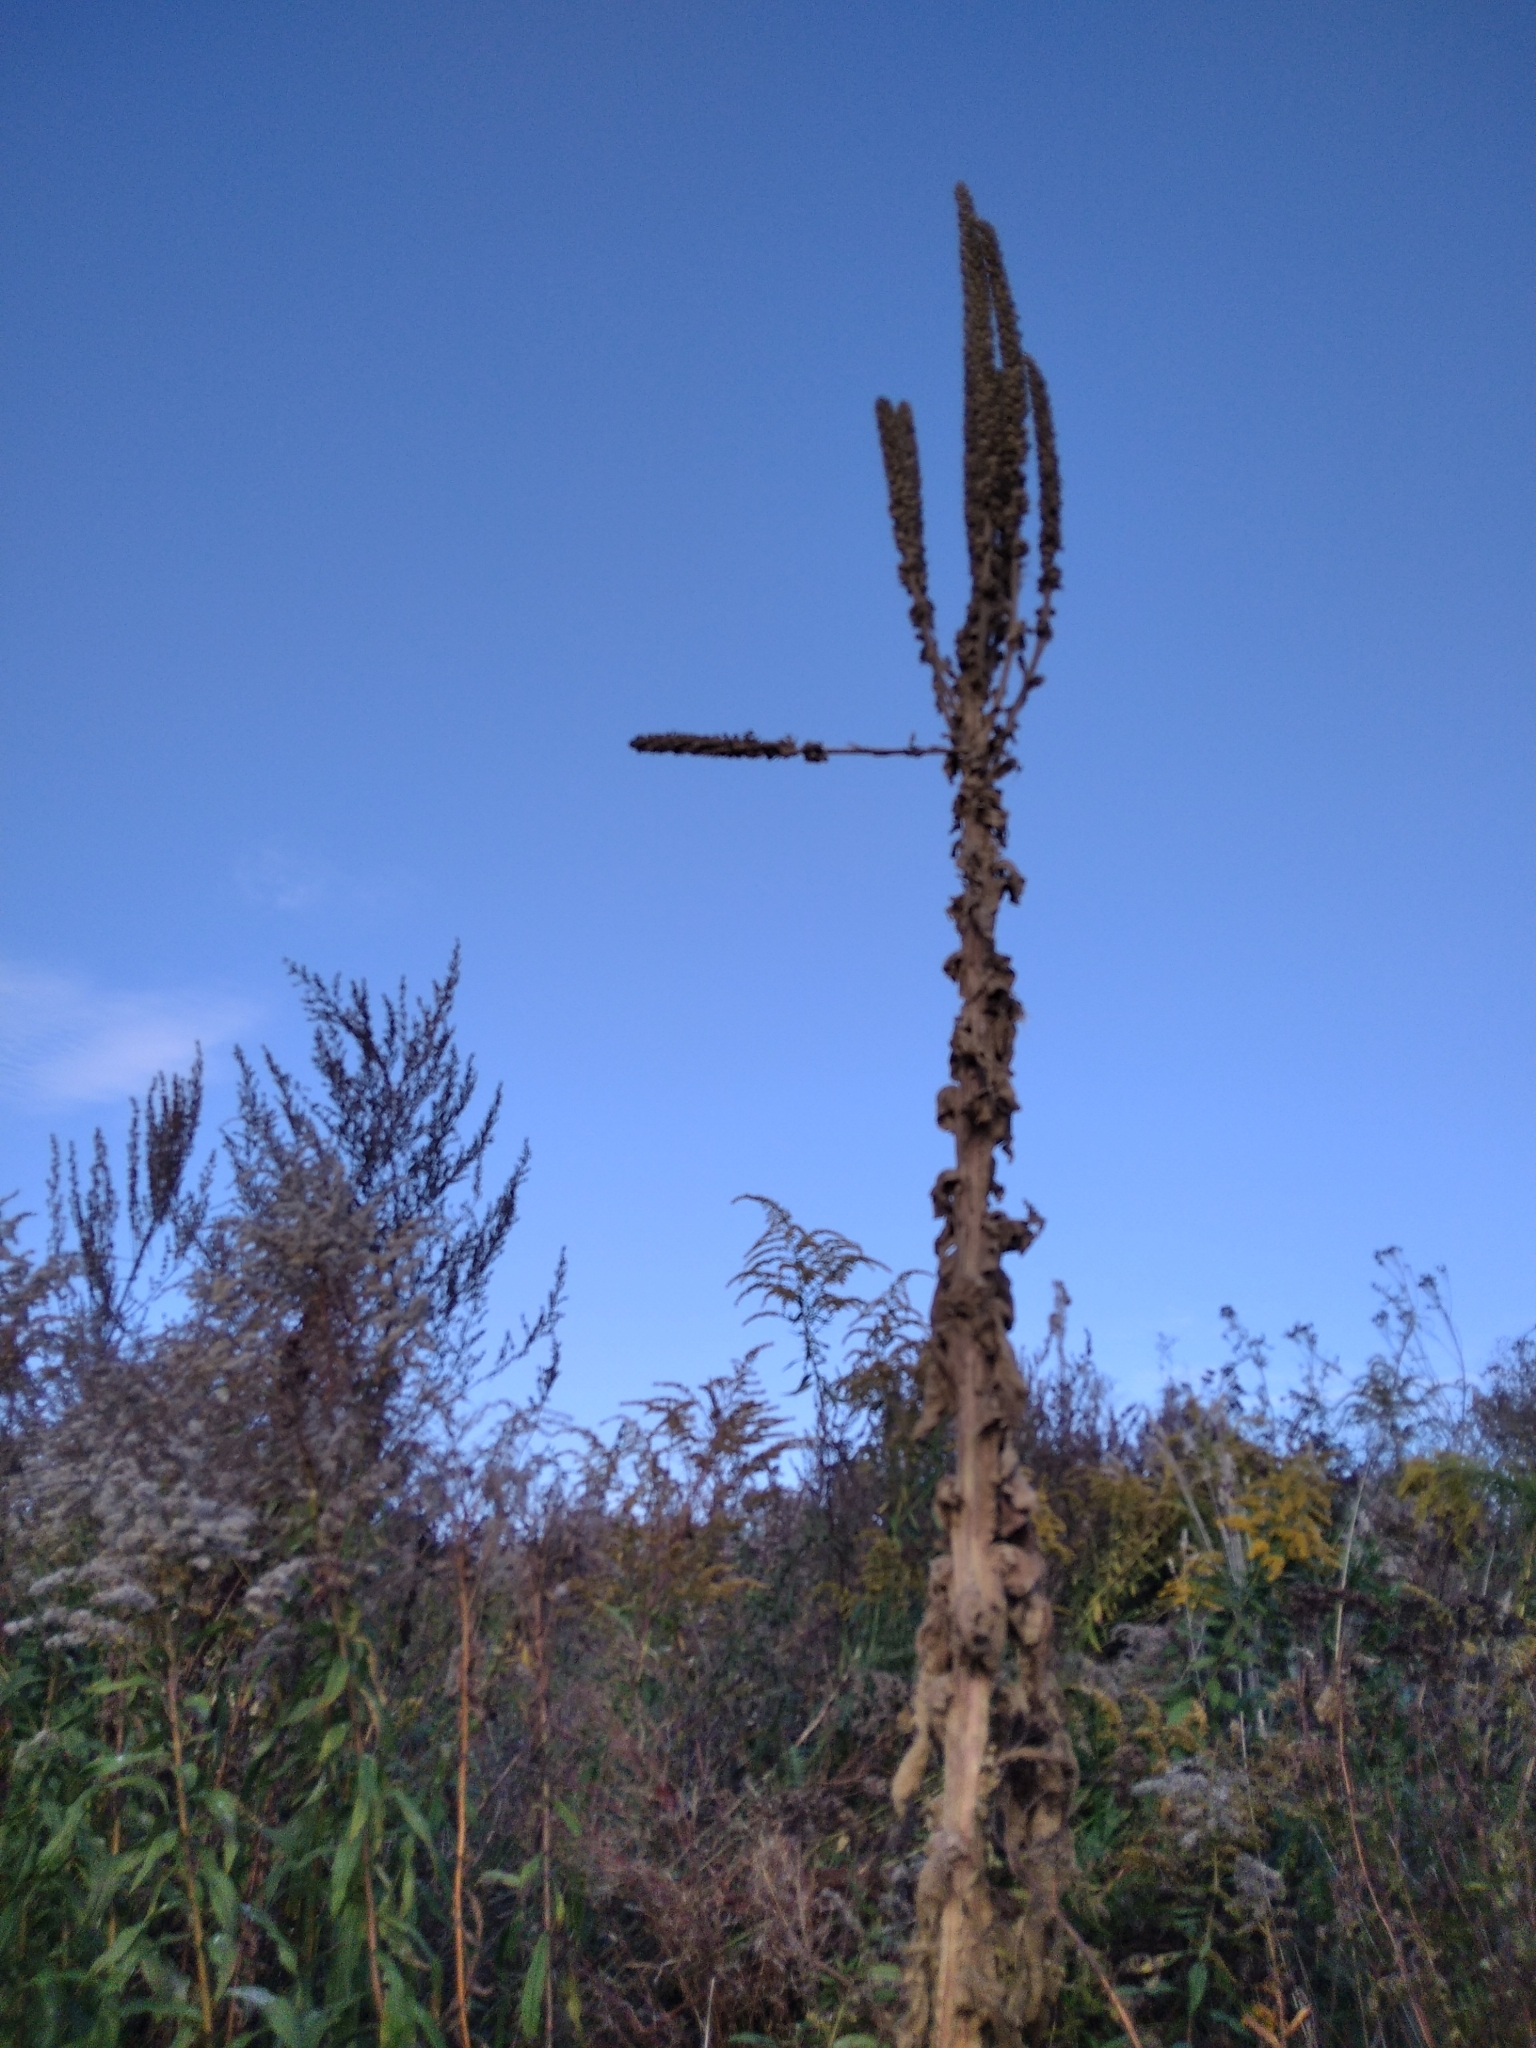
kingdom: Plantae
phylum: Tracheophyta
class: Magnoliopsida
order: Lamiales
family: Scrophulariaceae
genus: Verbascum
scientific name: Verbascum thapsus
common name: Common mullein
